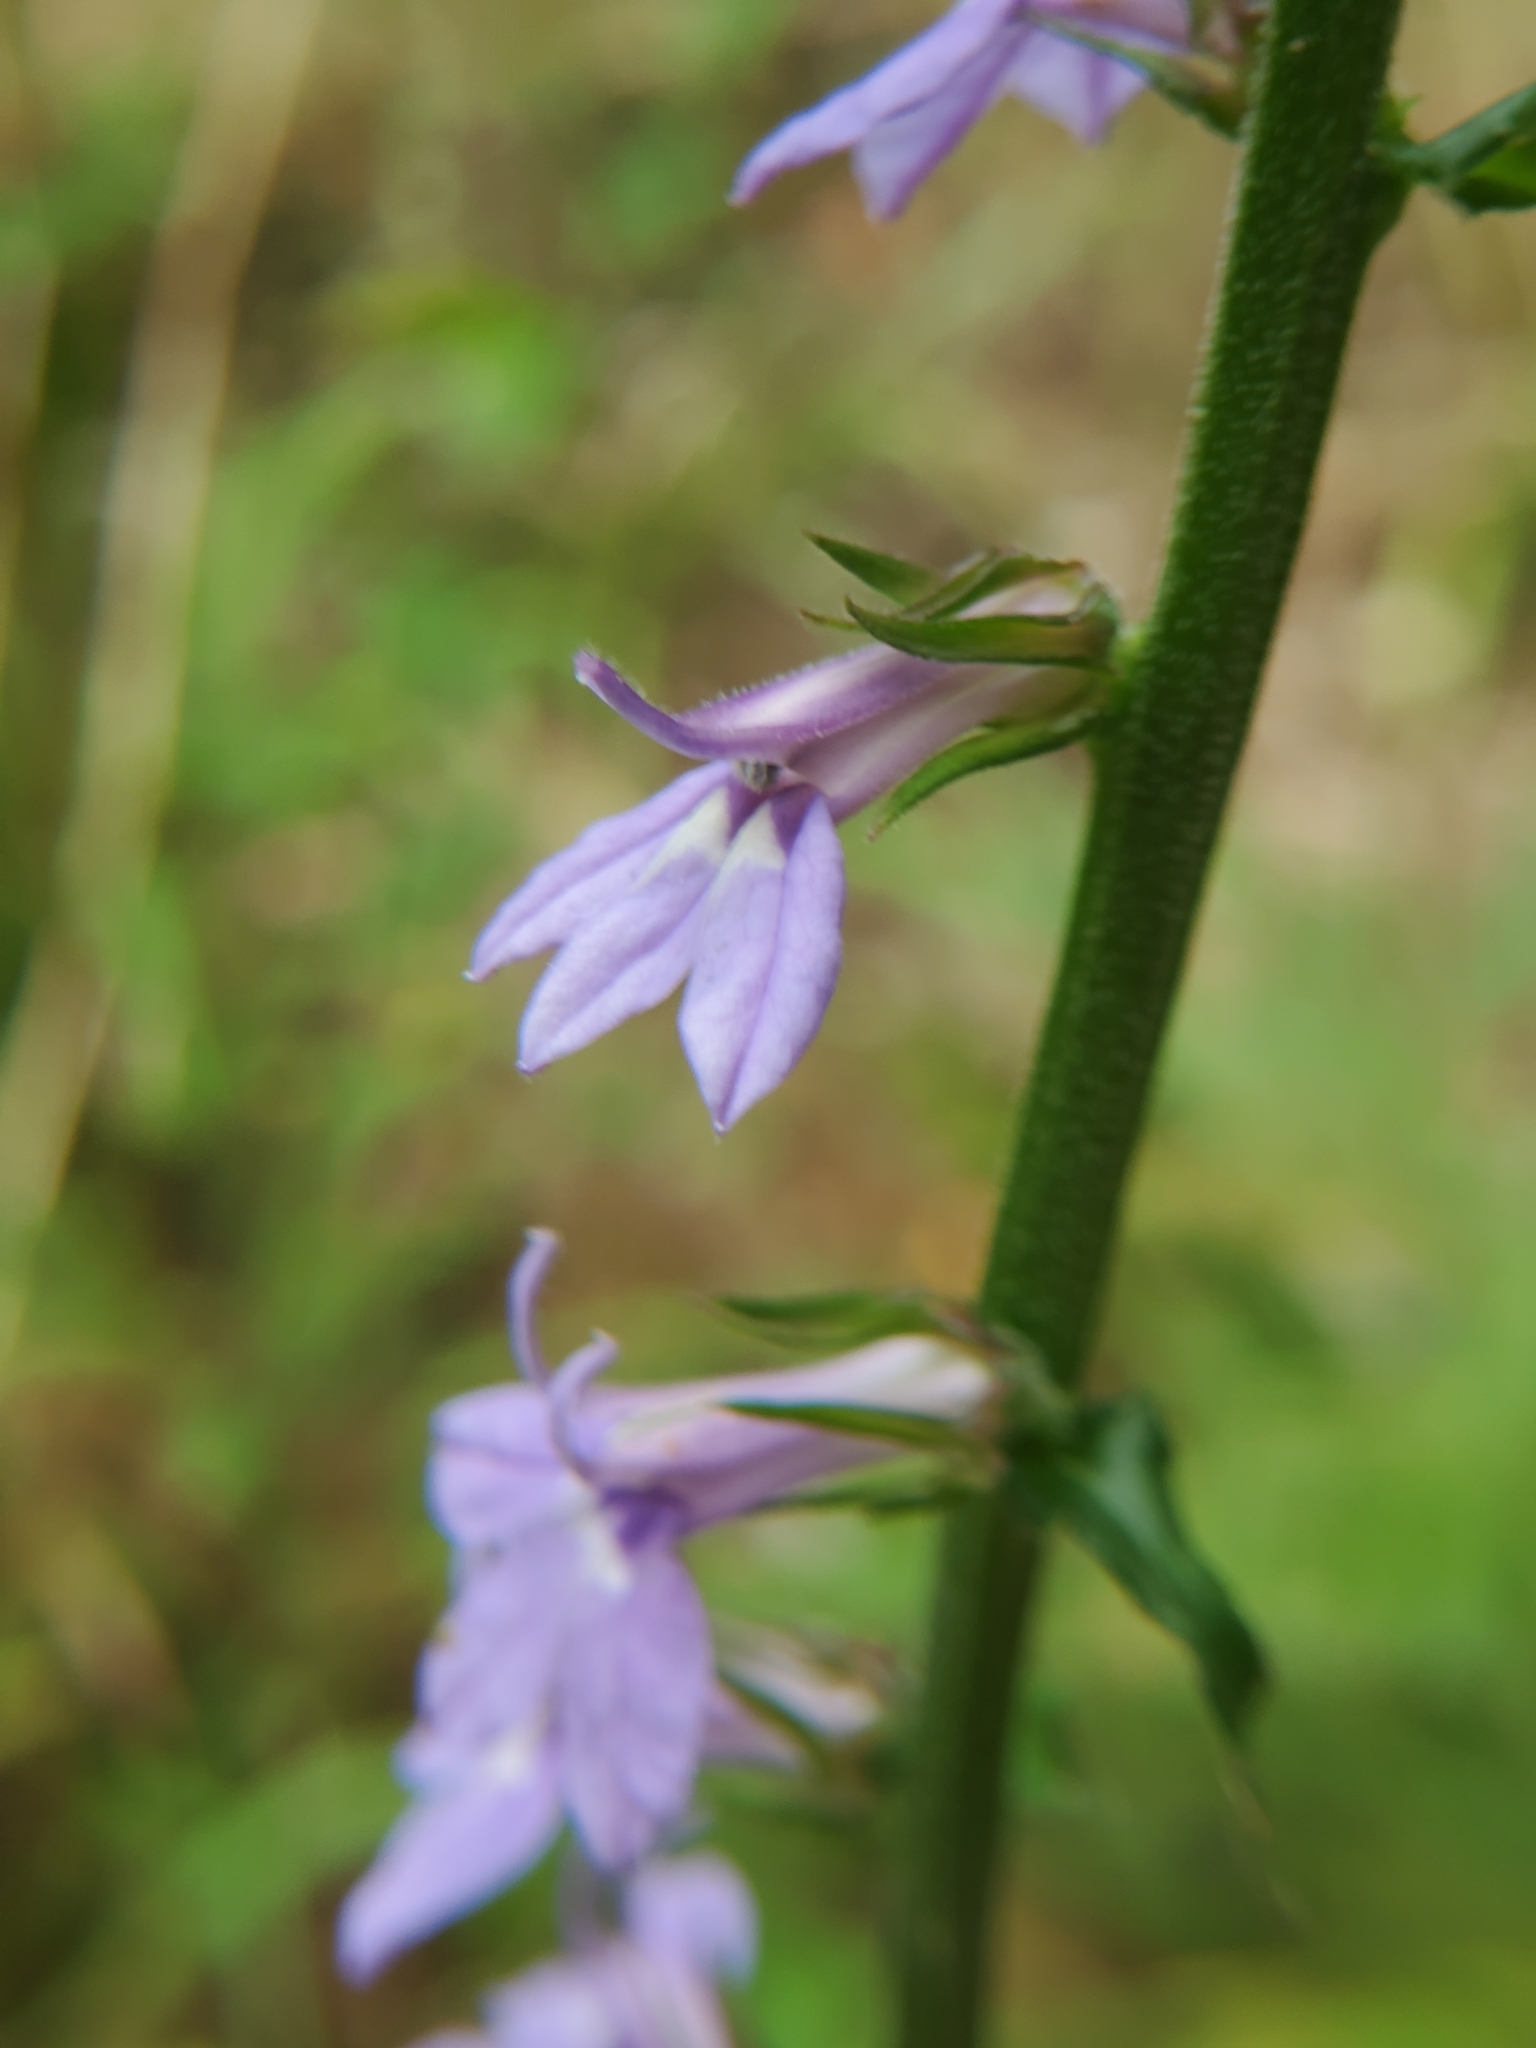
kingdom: Plantae
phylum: Tracheophyta
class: Magnoliopsida
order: Asterales
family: Campanulaceae
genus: Lobelia
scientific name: Lobelia puberula
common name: Purple dewdrop
